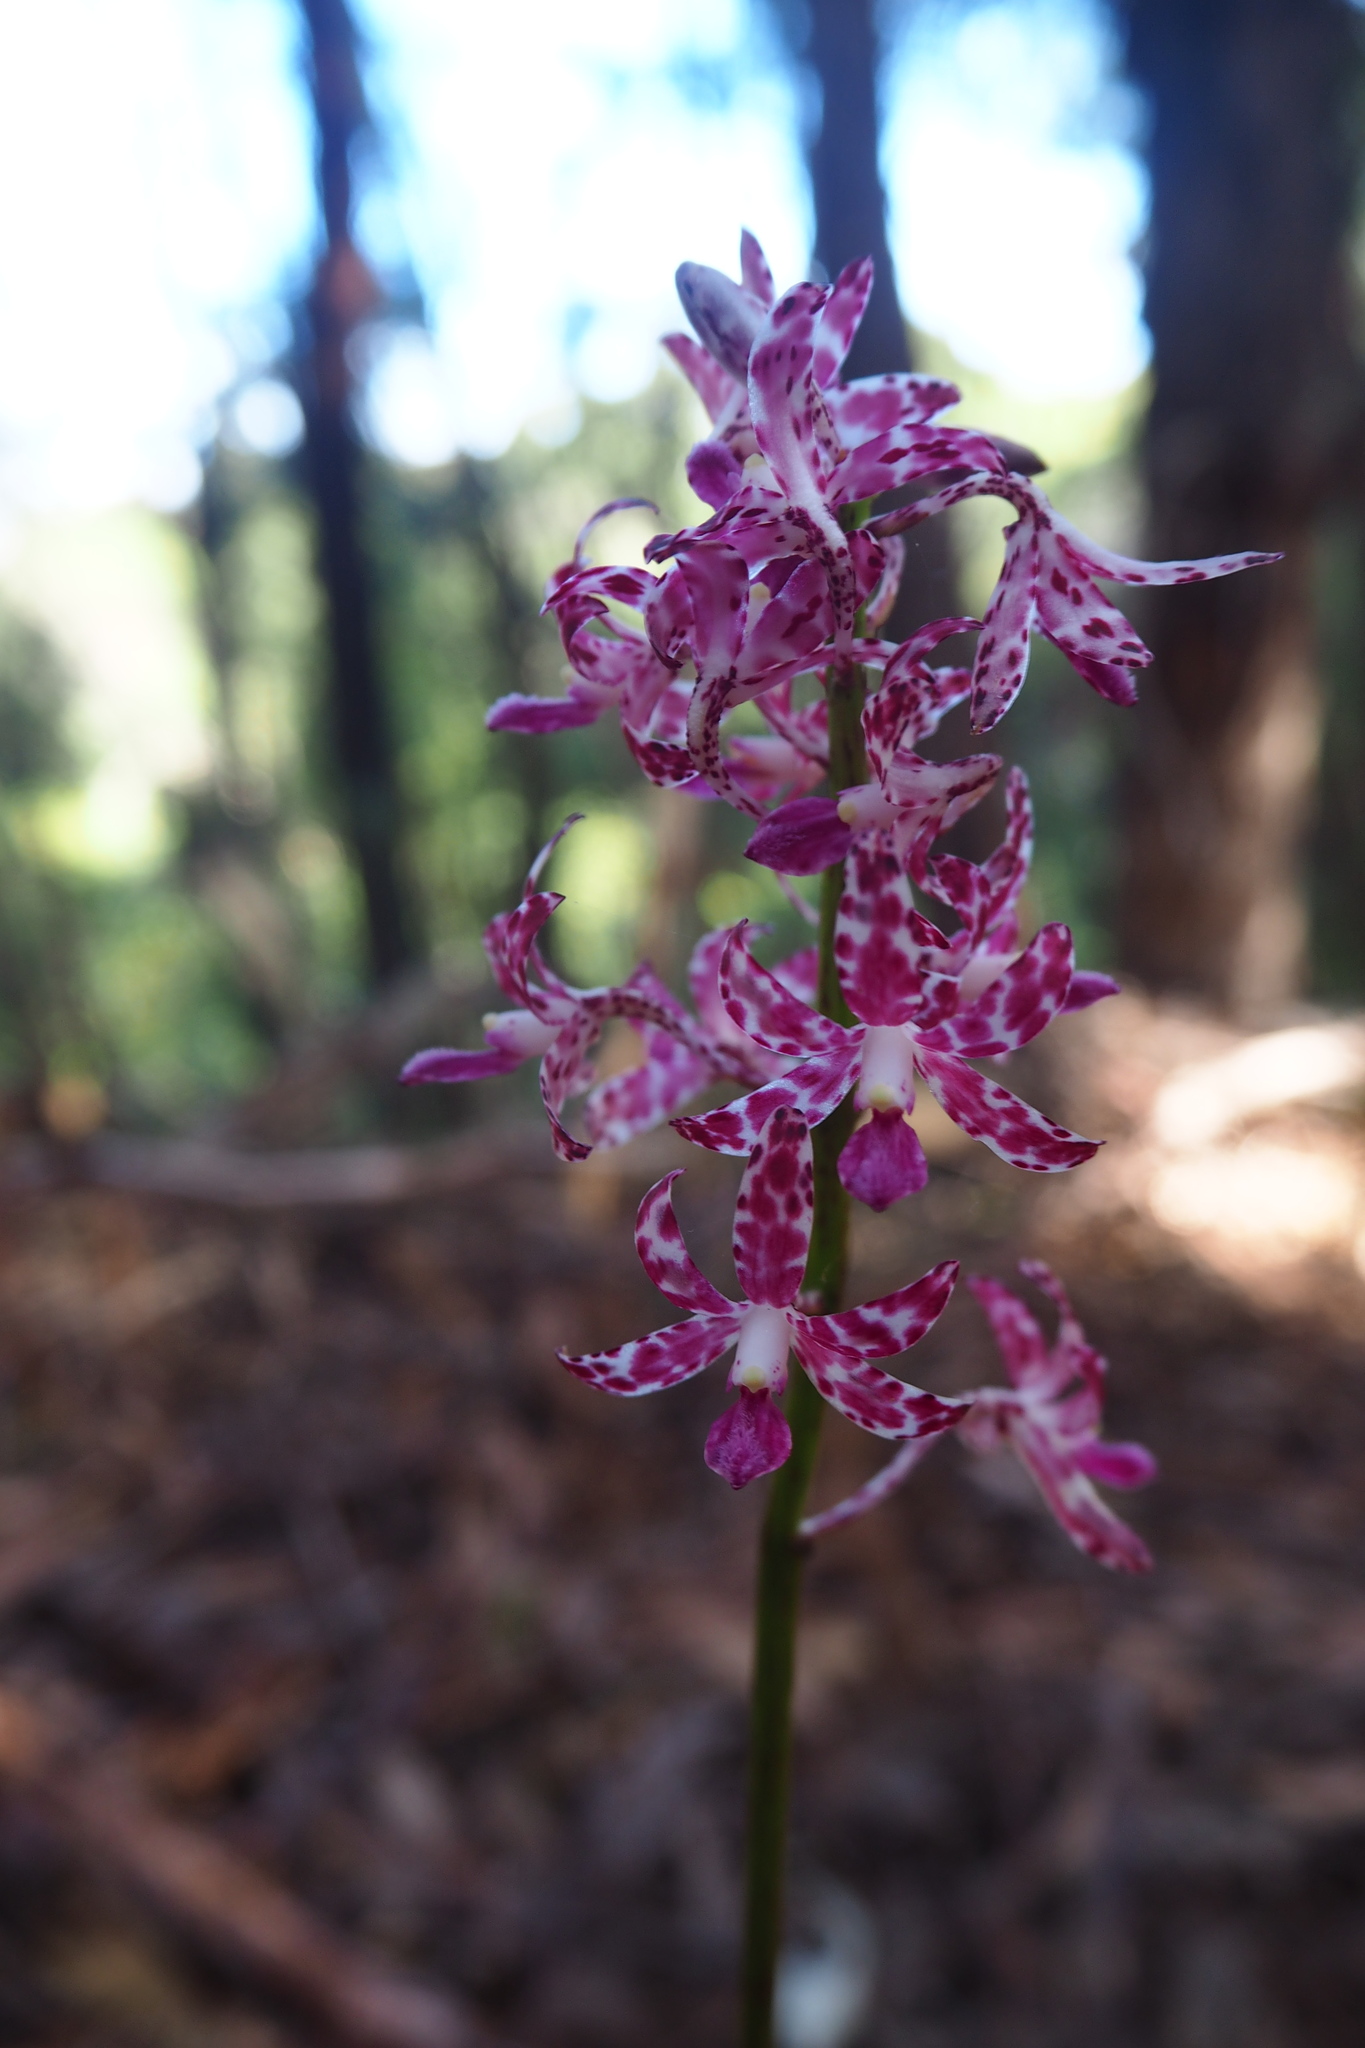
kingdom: Plantae
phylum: Tracheophyta
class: Liliopsida
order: Asparagales
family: Orchidaceae
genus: Dipodium
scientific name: Dipodium variegatum
